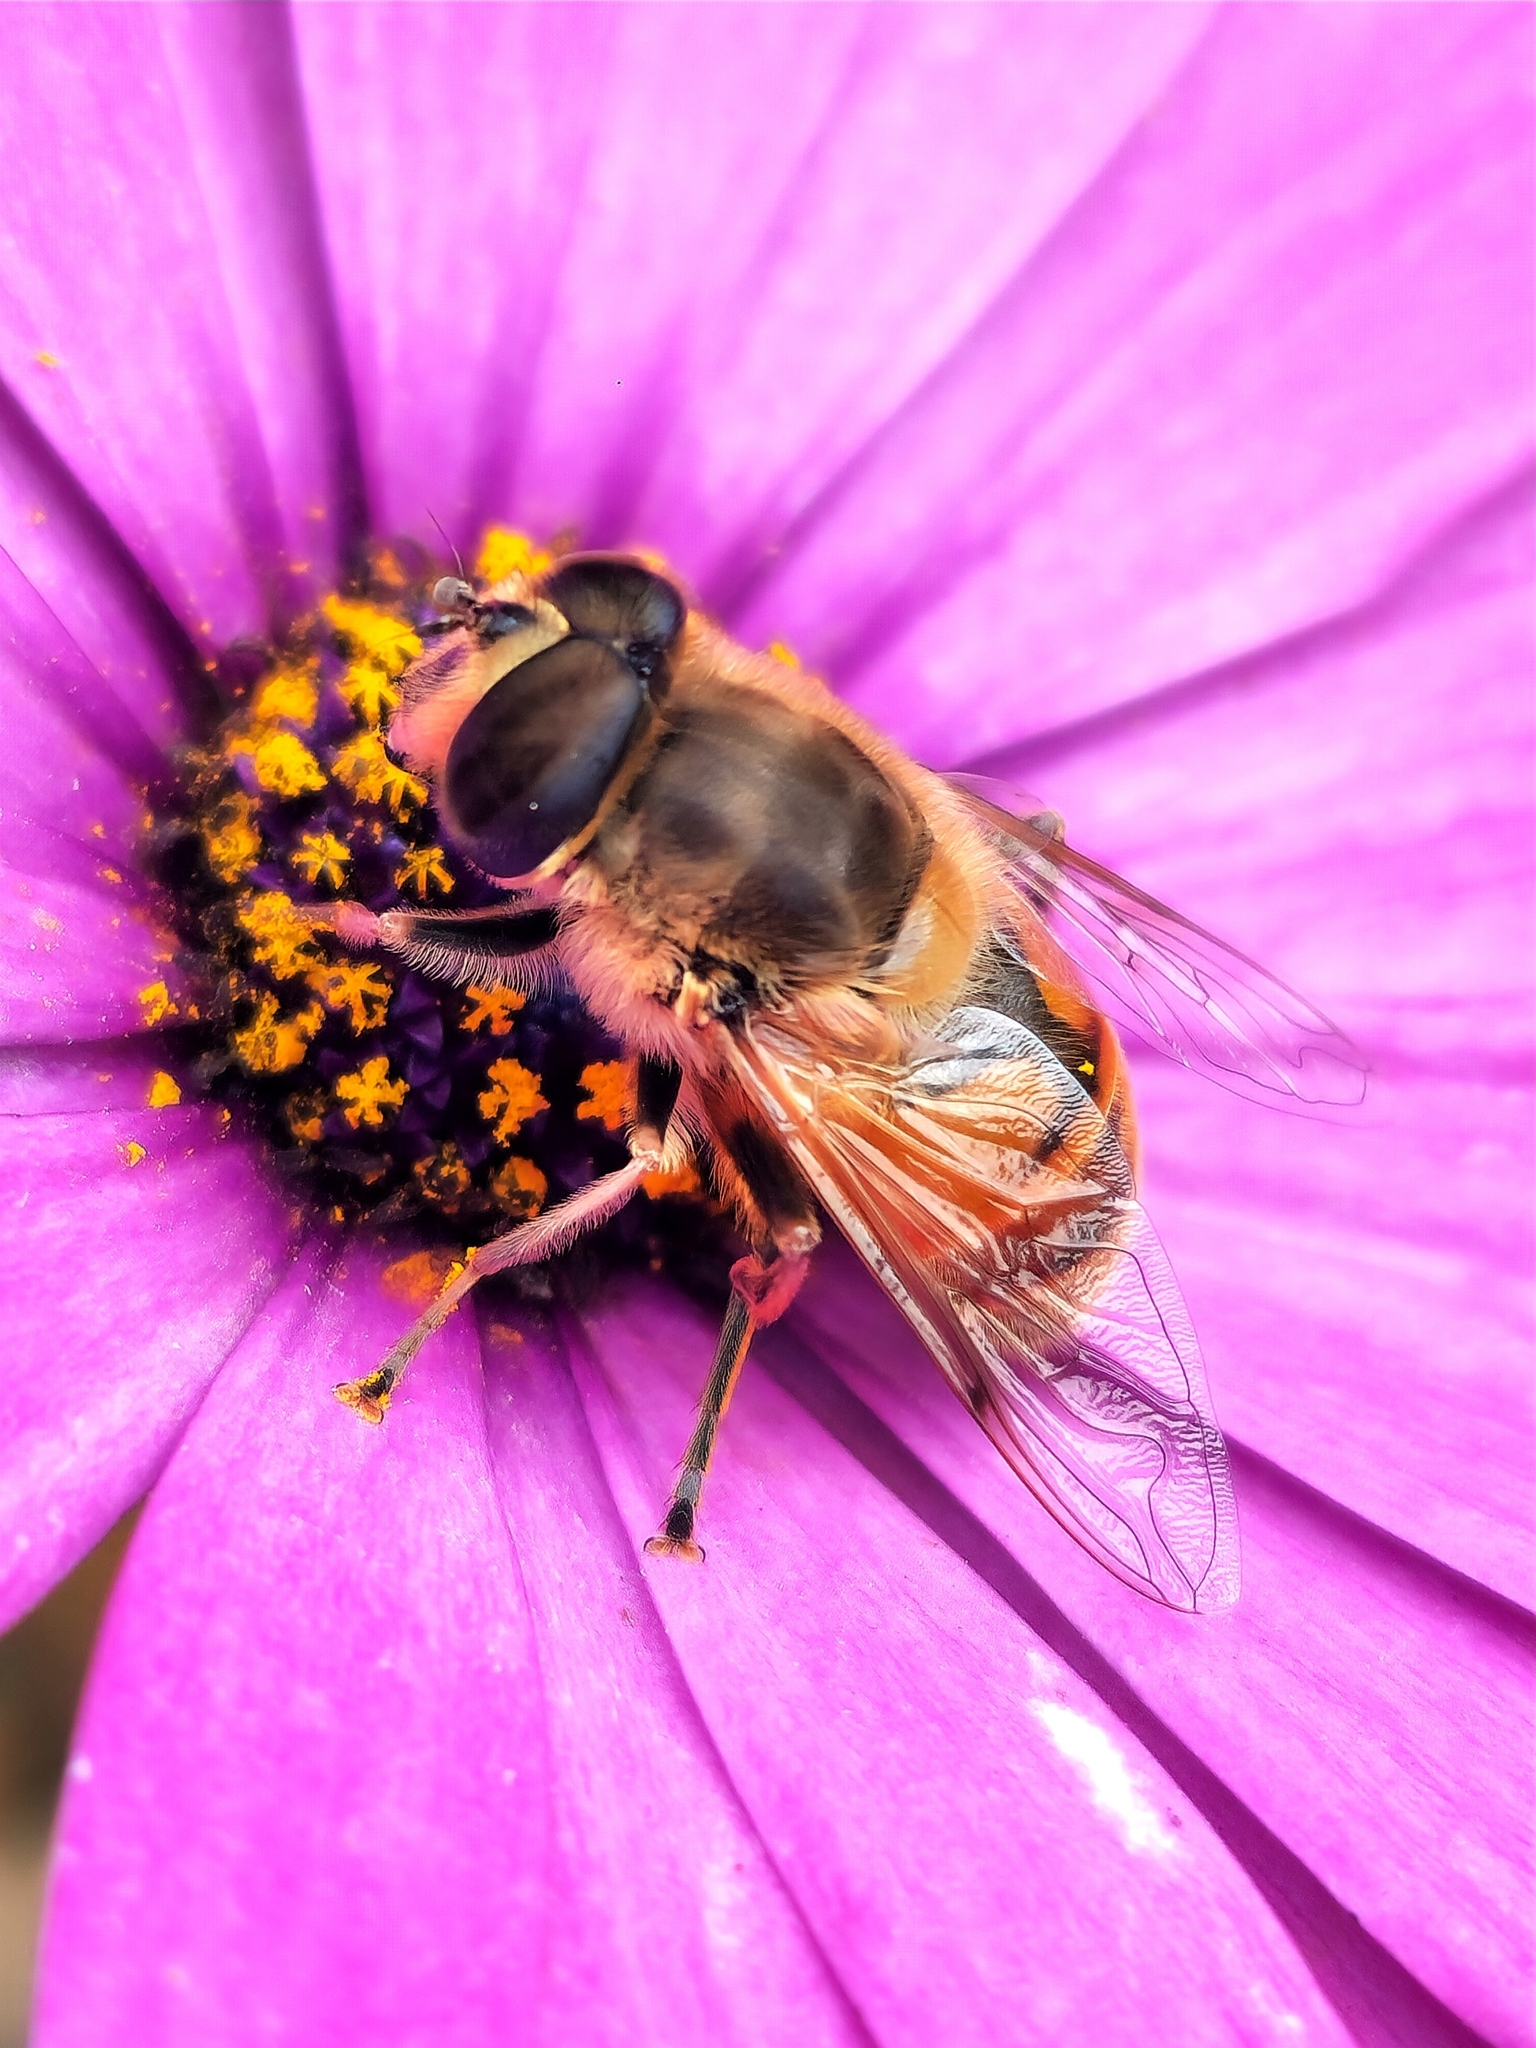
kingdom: Animalia
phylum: Arthropoda
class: Insecta
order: Diptera
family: Syrphidae
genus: Eristalis
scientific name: Eristalis tenax
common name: Drone fly
